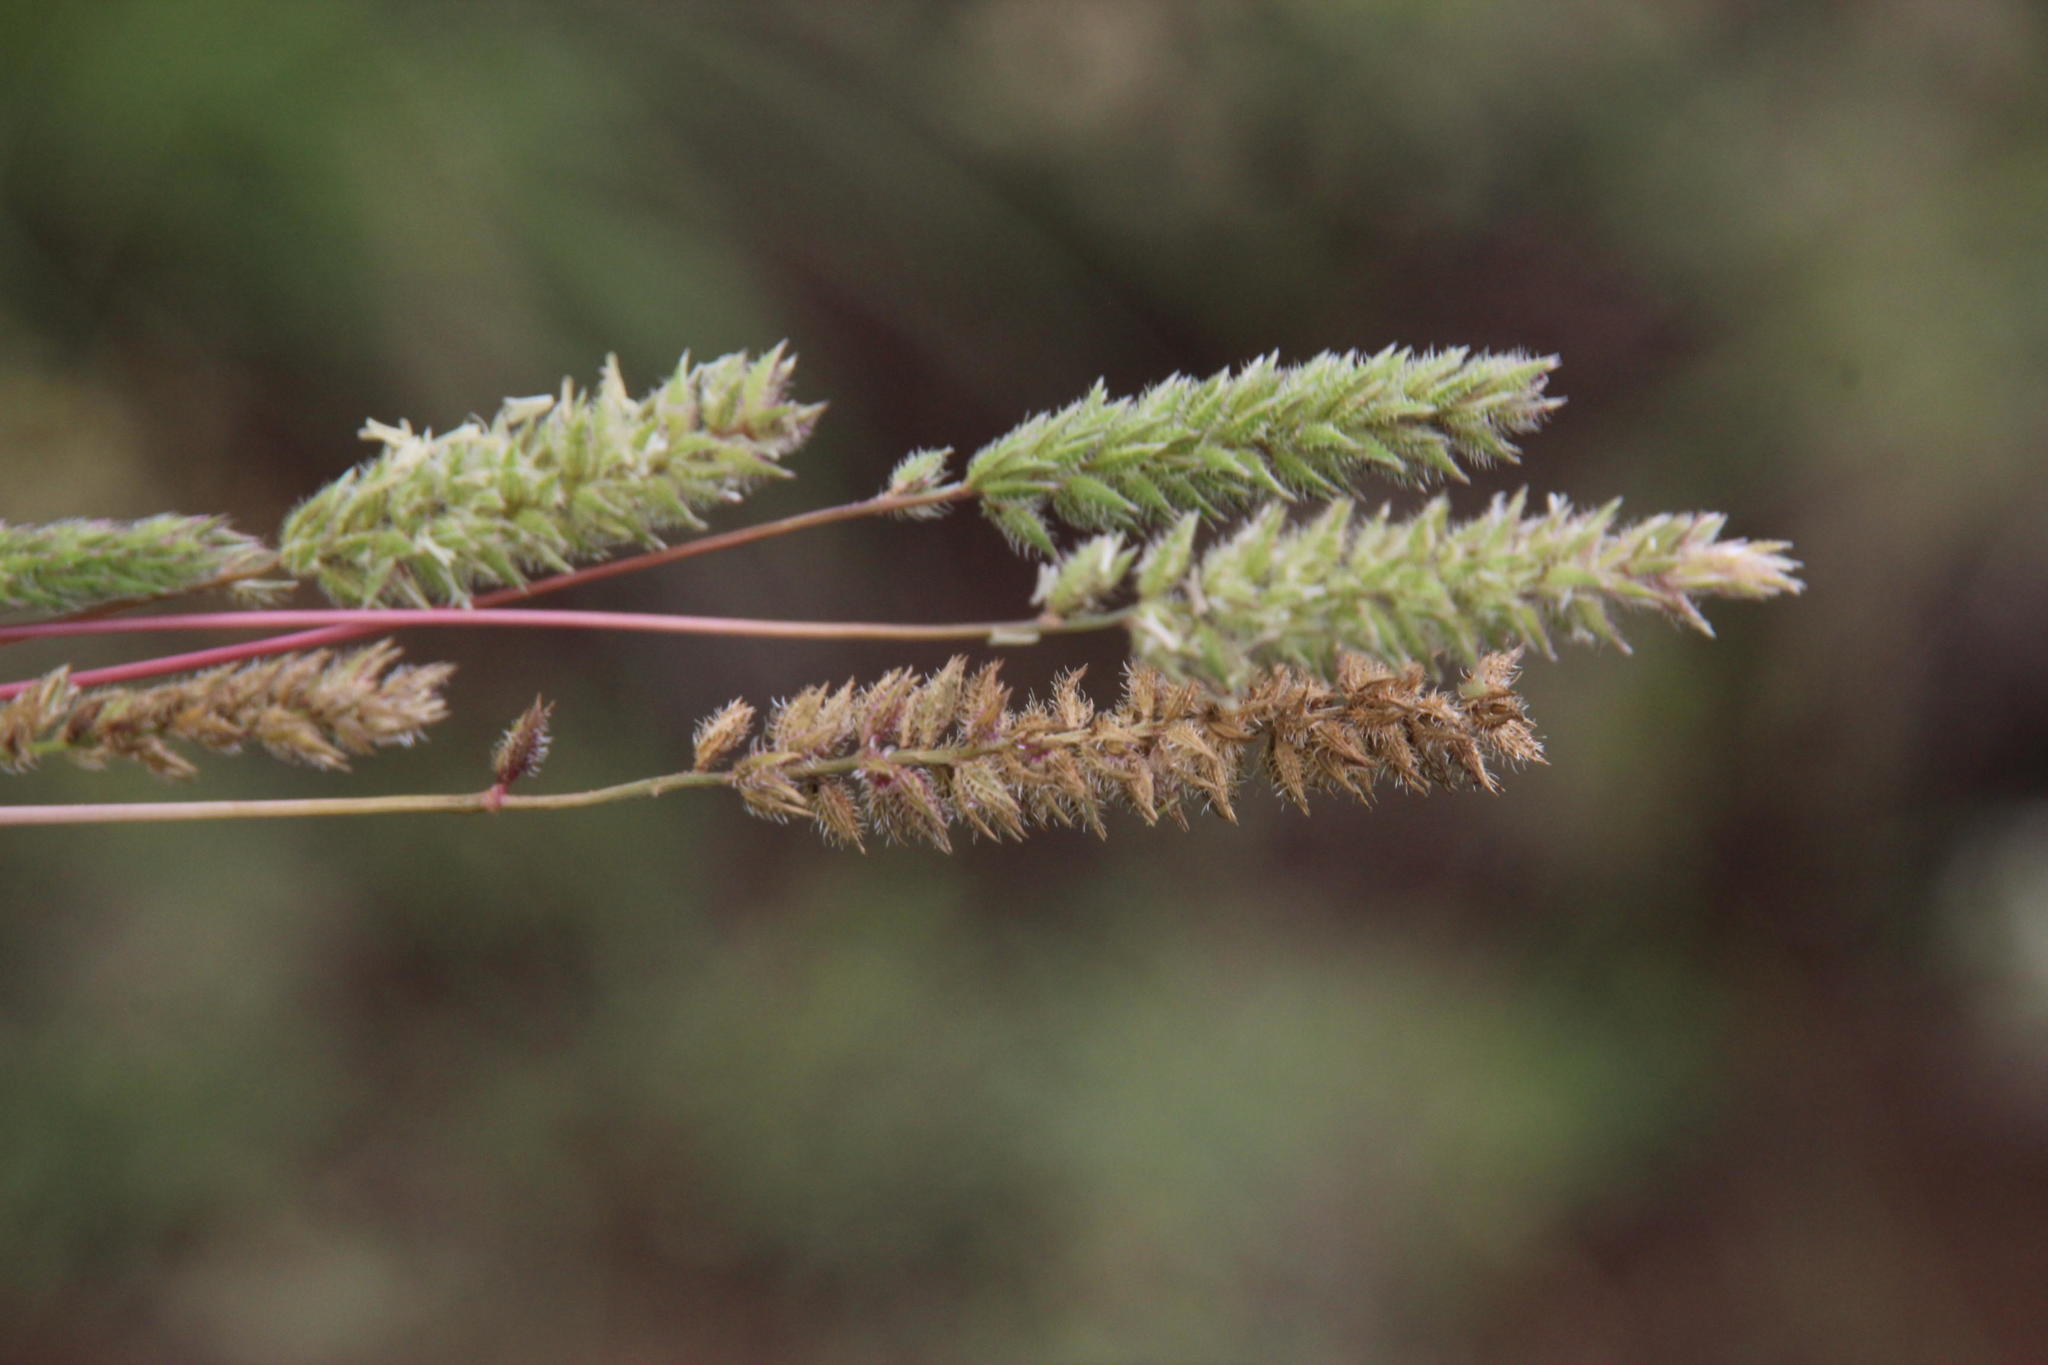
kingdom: Plantae
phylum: Tracheophyta
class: Liliopsida
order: Poales
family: Poaceae
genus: Tragus
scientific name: Tragus berteronianus
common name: African bur-grass
